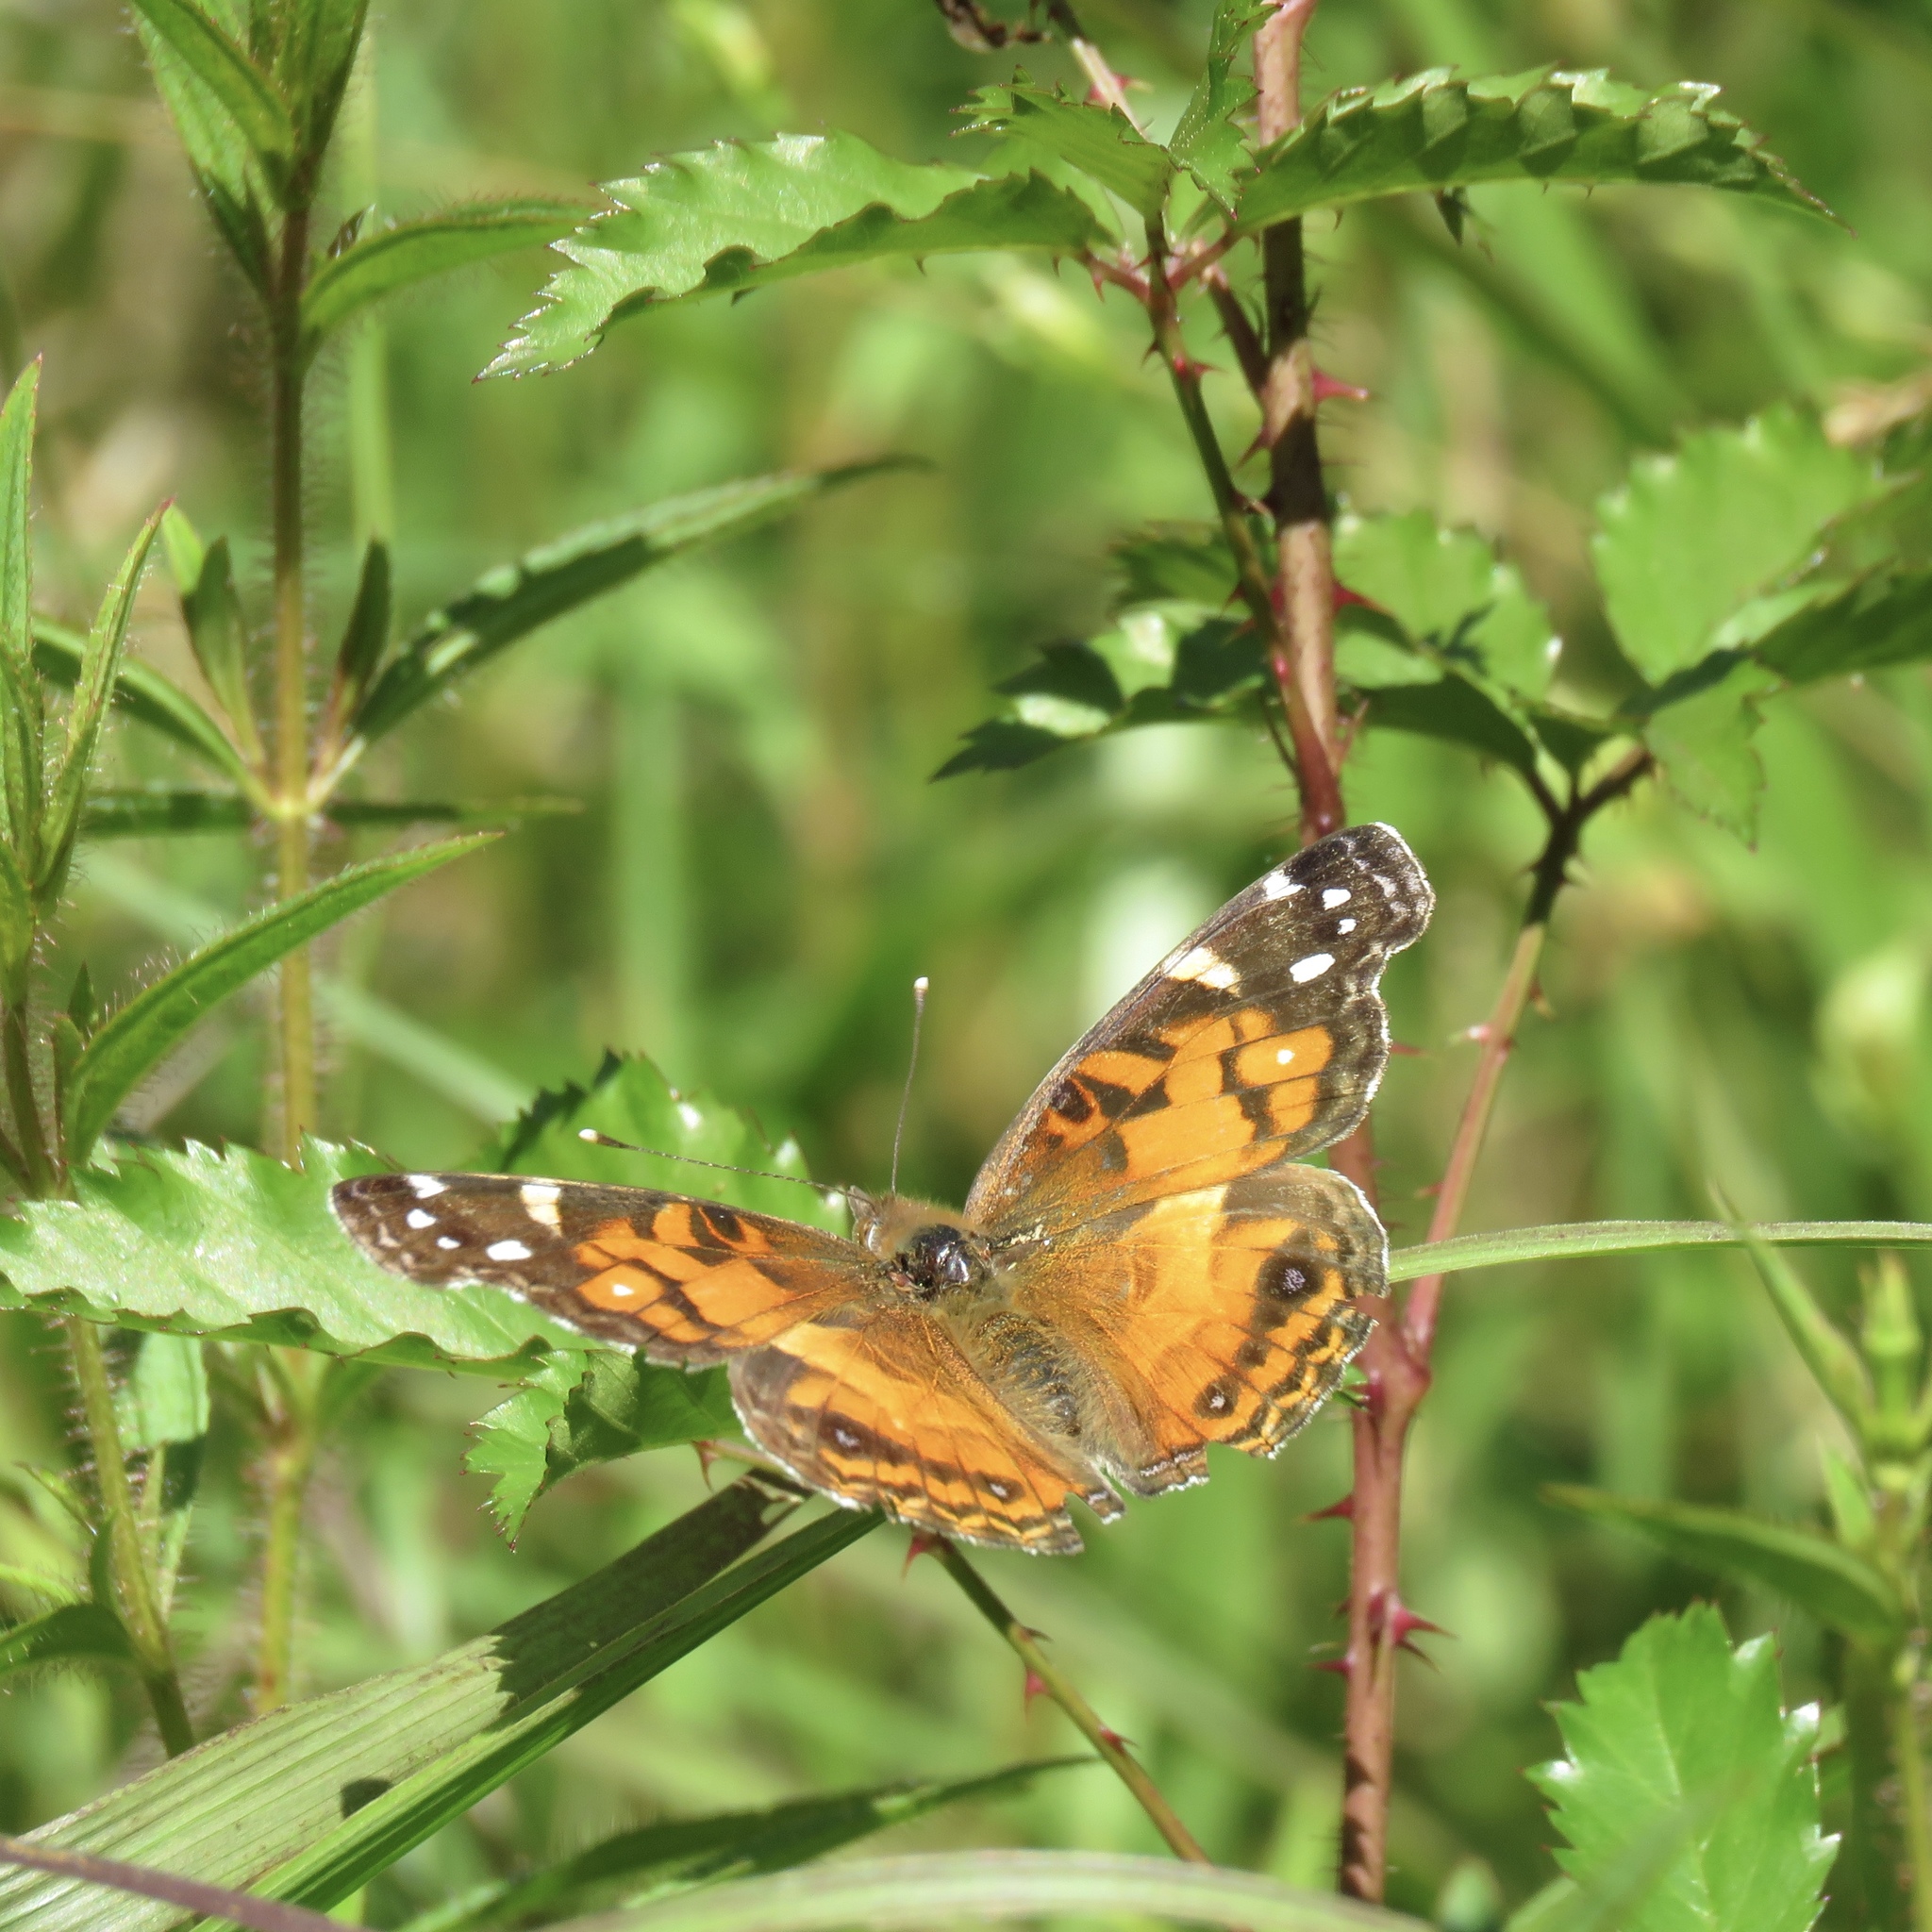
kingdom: Animalia
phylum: Arthropoda
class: Insecta
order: Lepidoptera
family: Nymphalidae
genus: Vanessa
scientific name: Vanessa virginiensis
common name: American lady
